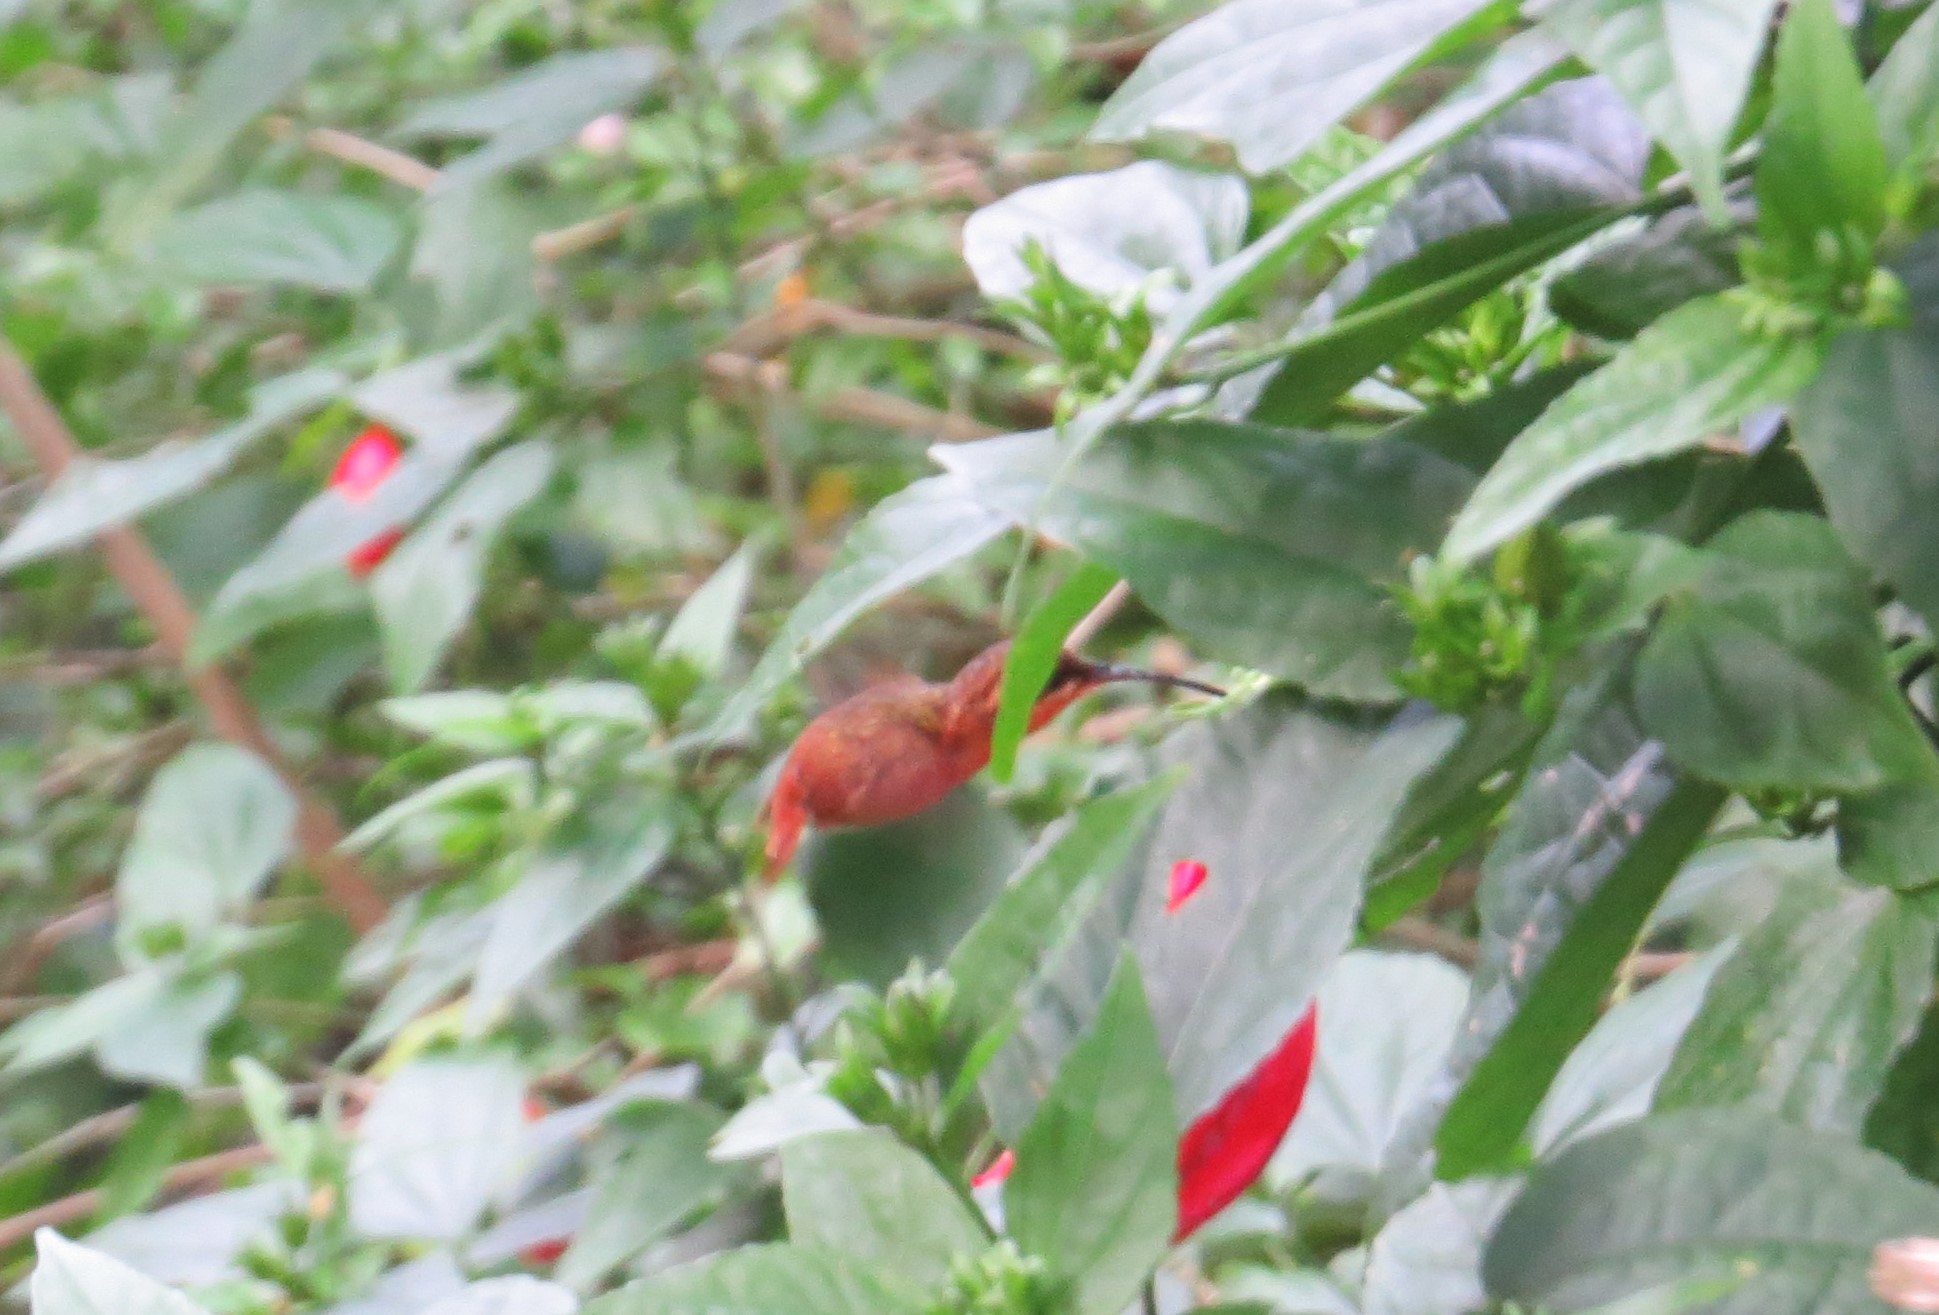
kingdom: Animalia
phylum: Chordata
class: Aves
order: Apodiformes
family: Trochilidae
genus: Phaethornis
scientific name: Phaethornis ruber
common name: Reddish hermit
